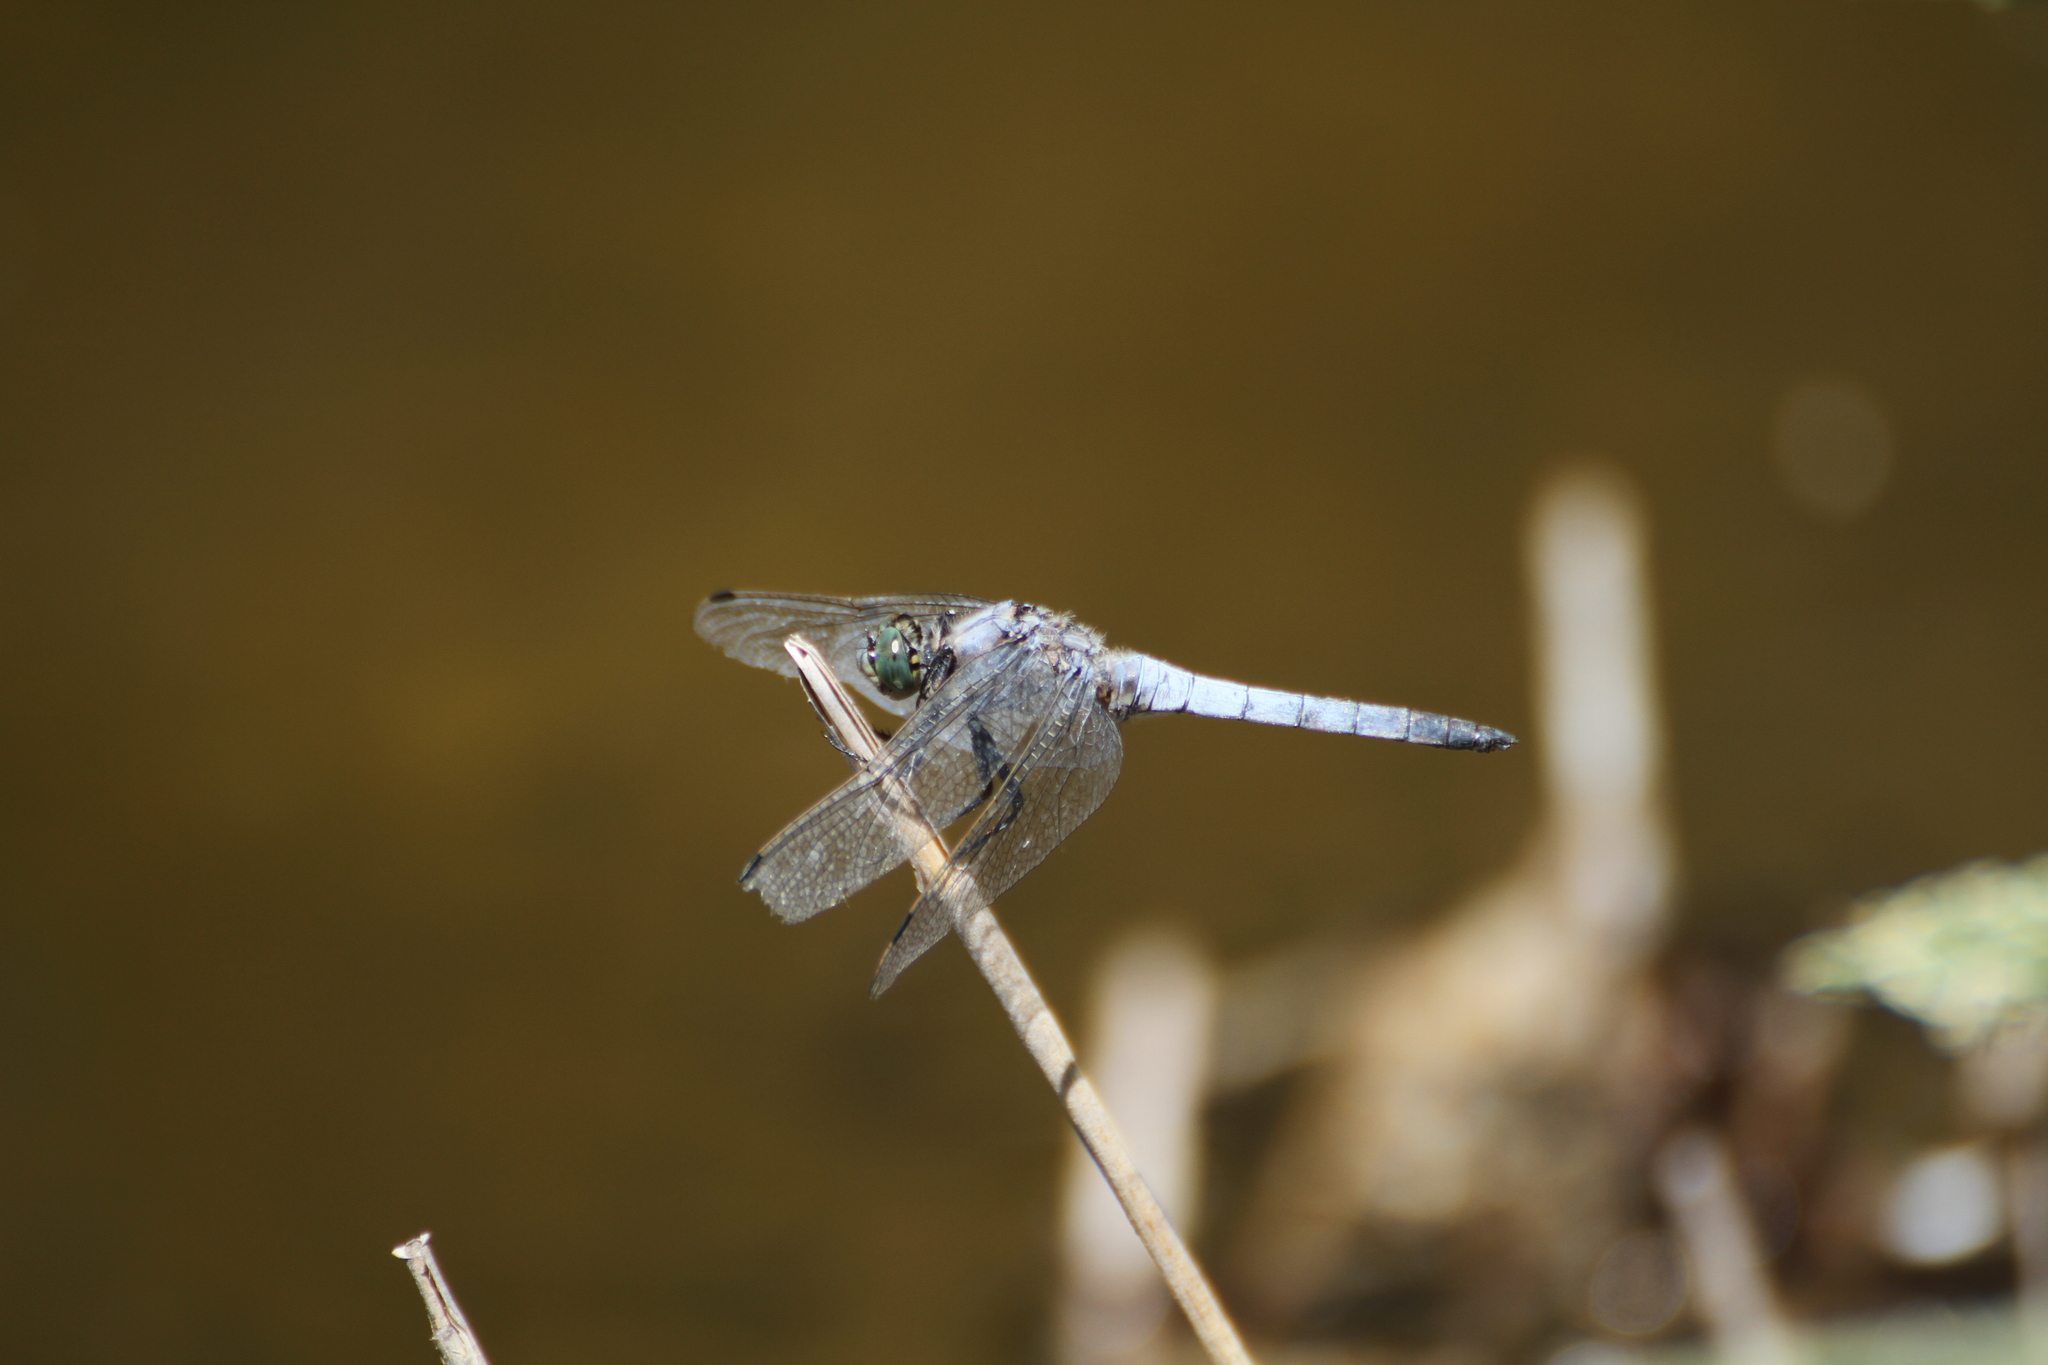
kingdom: Animalia
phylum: Arthropoda
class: Insecta
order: Odonata
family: Libellulidae
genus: Orthetrum
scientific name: Orthetrum cancellatum
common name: Black-tailed skimmer
